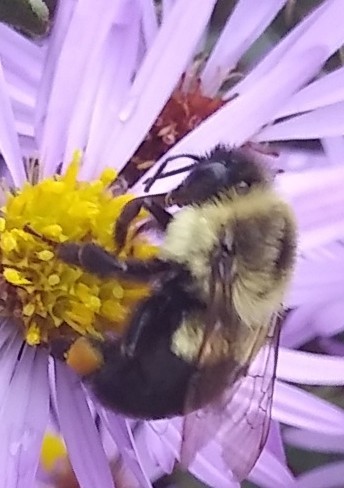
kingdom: Animalia
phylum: Arthropoda
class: Insecta
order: Hymenoptera
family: Apidae
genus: Bombus
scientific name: Bombus impatiens
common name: Common eastern bumble bee
